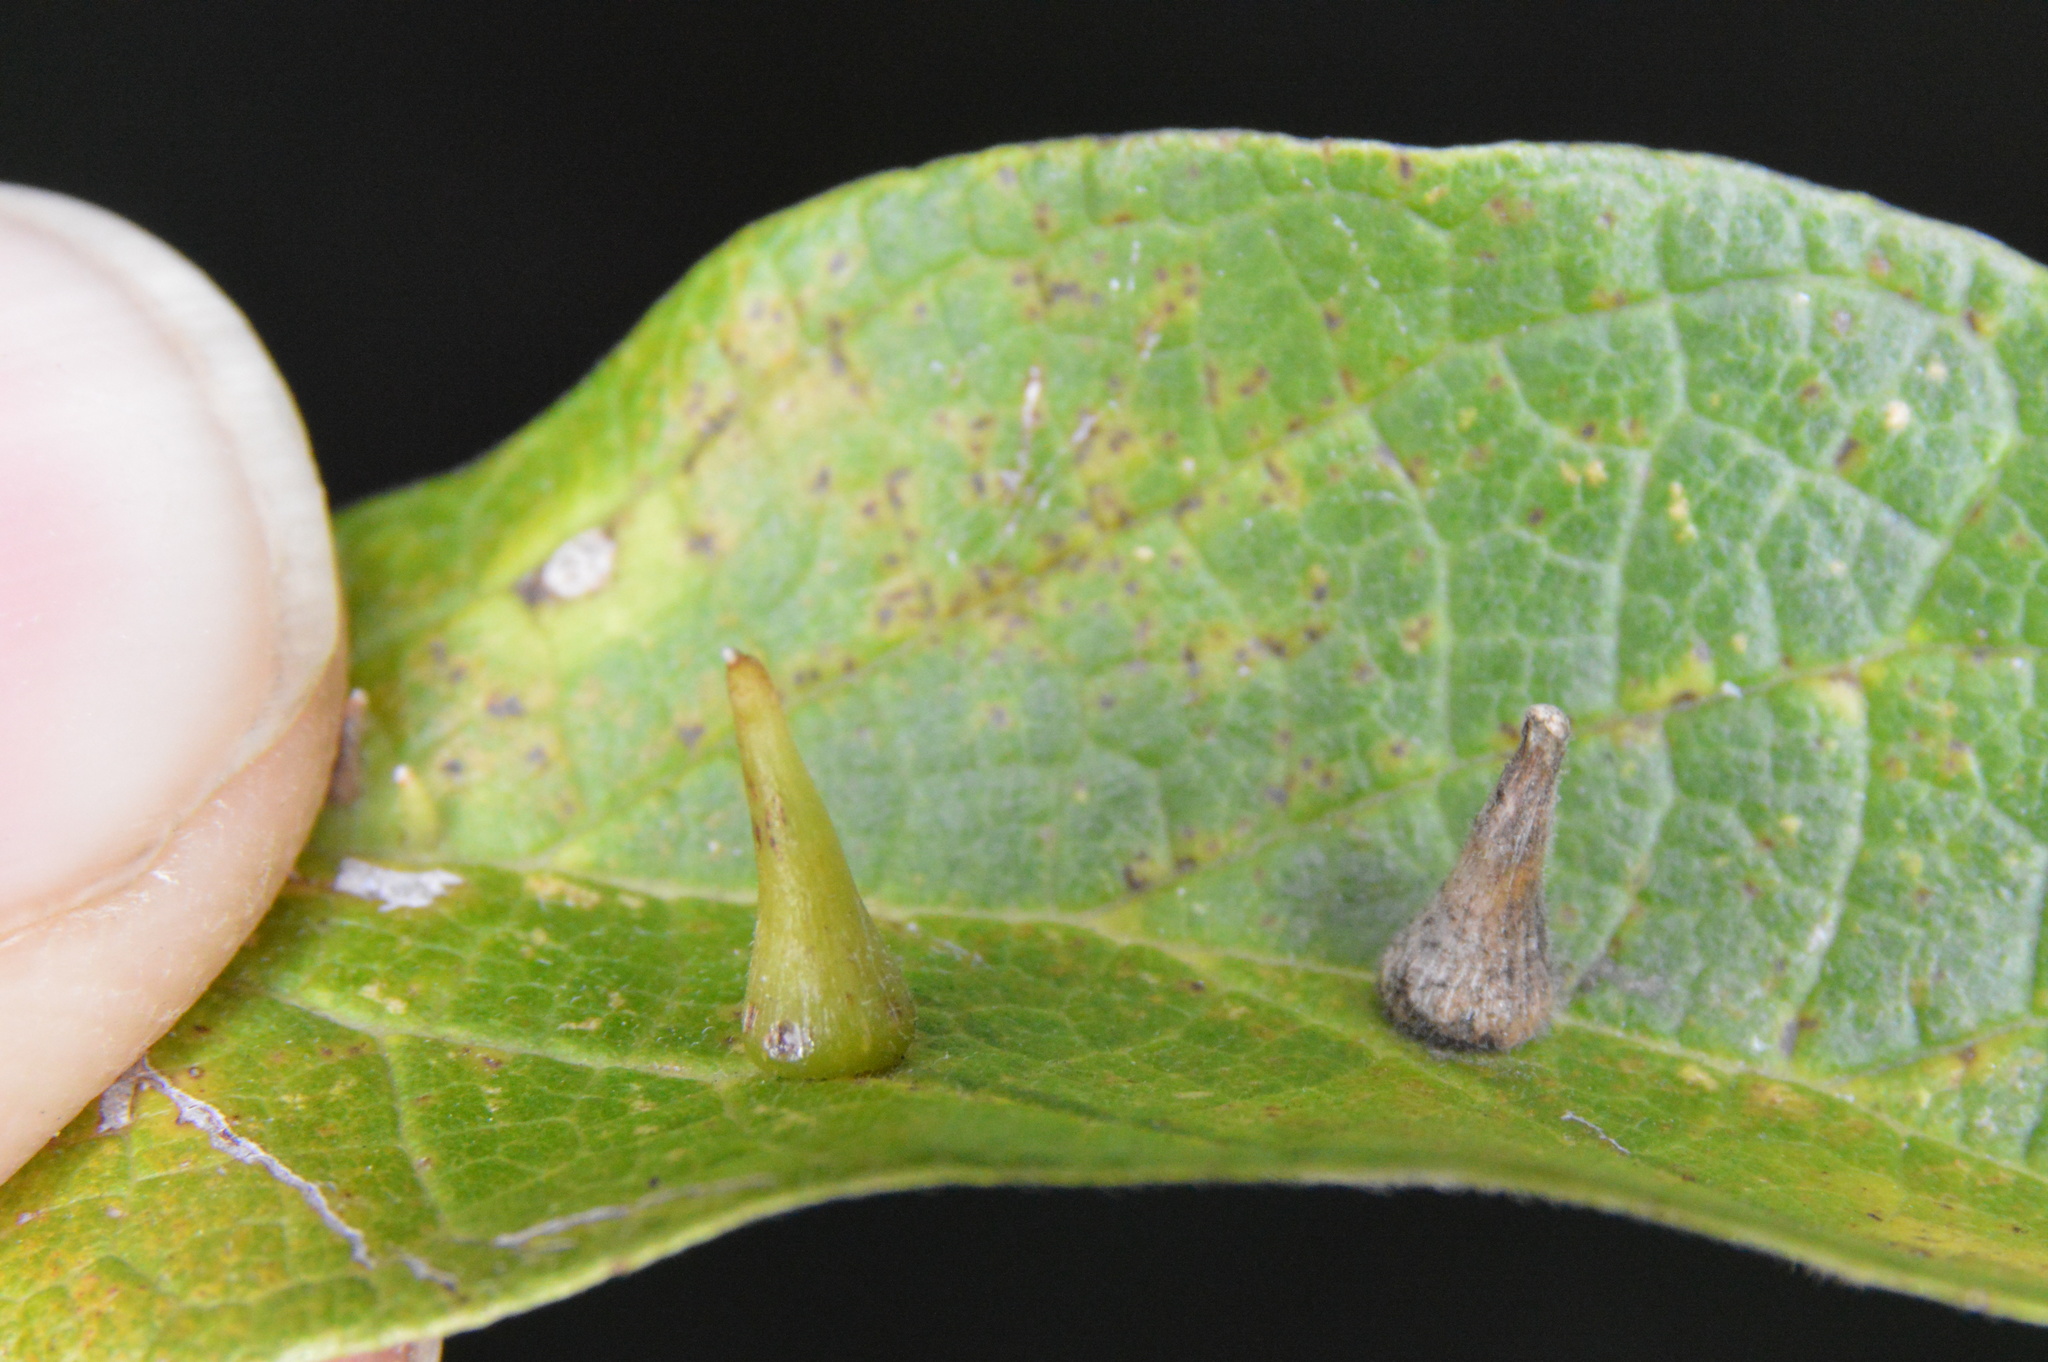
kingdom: Animalia
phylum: Arthropoda
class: Insecta
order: Diptera
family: Cecidomyiidae
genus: Celticecis
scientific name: Celticecis subulata
